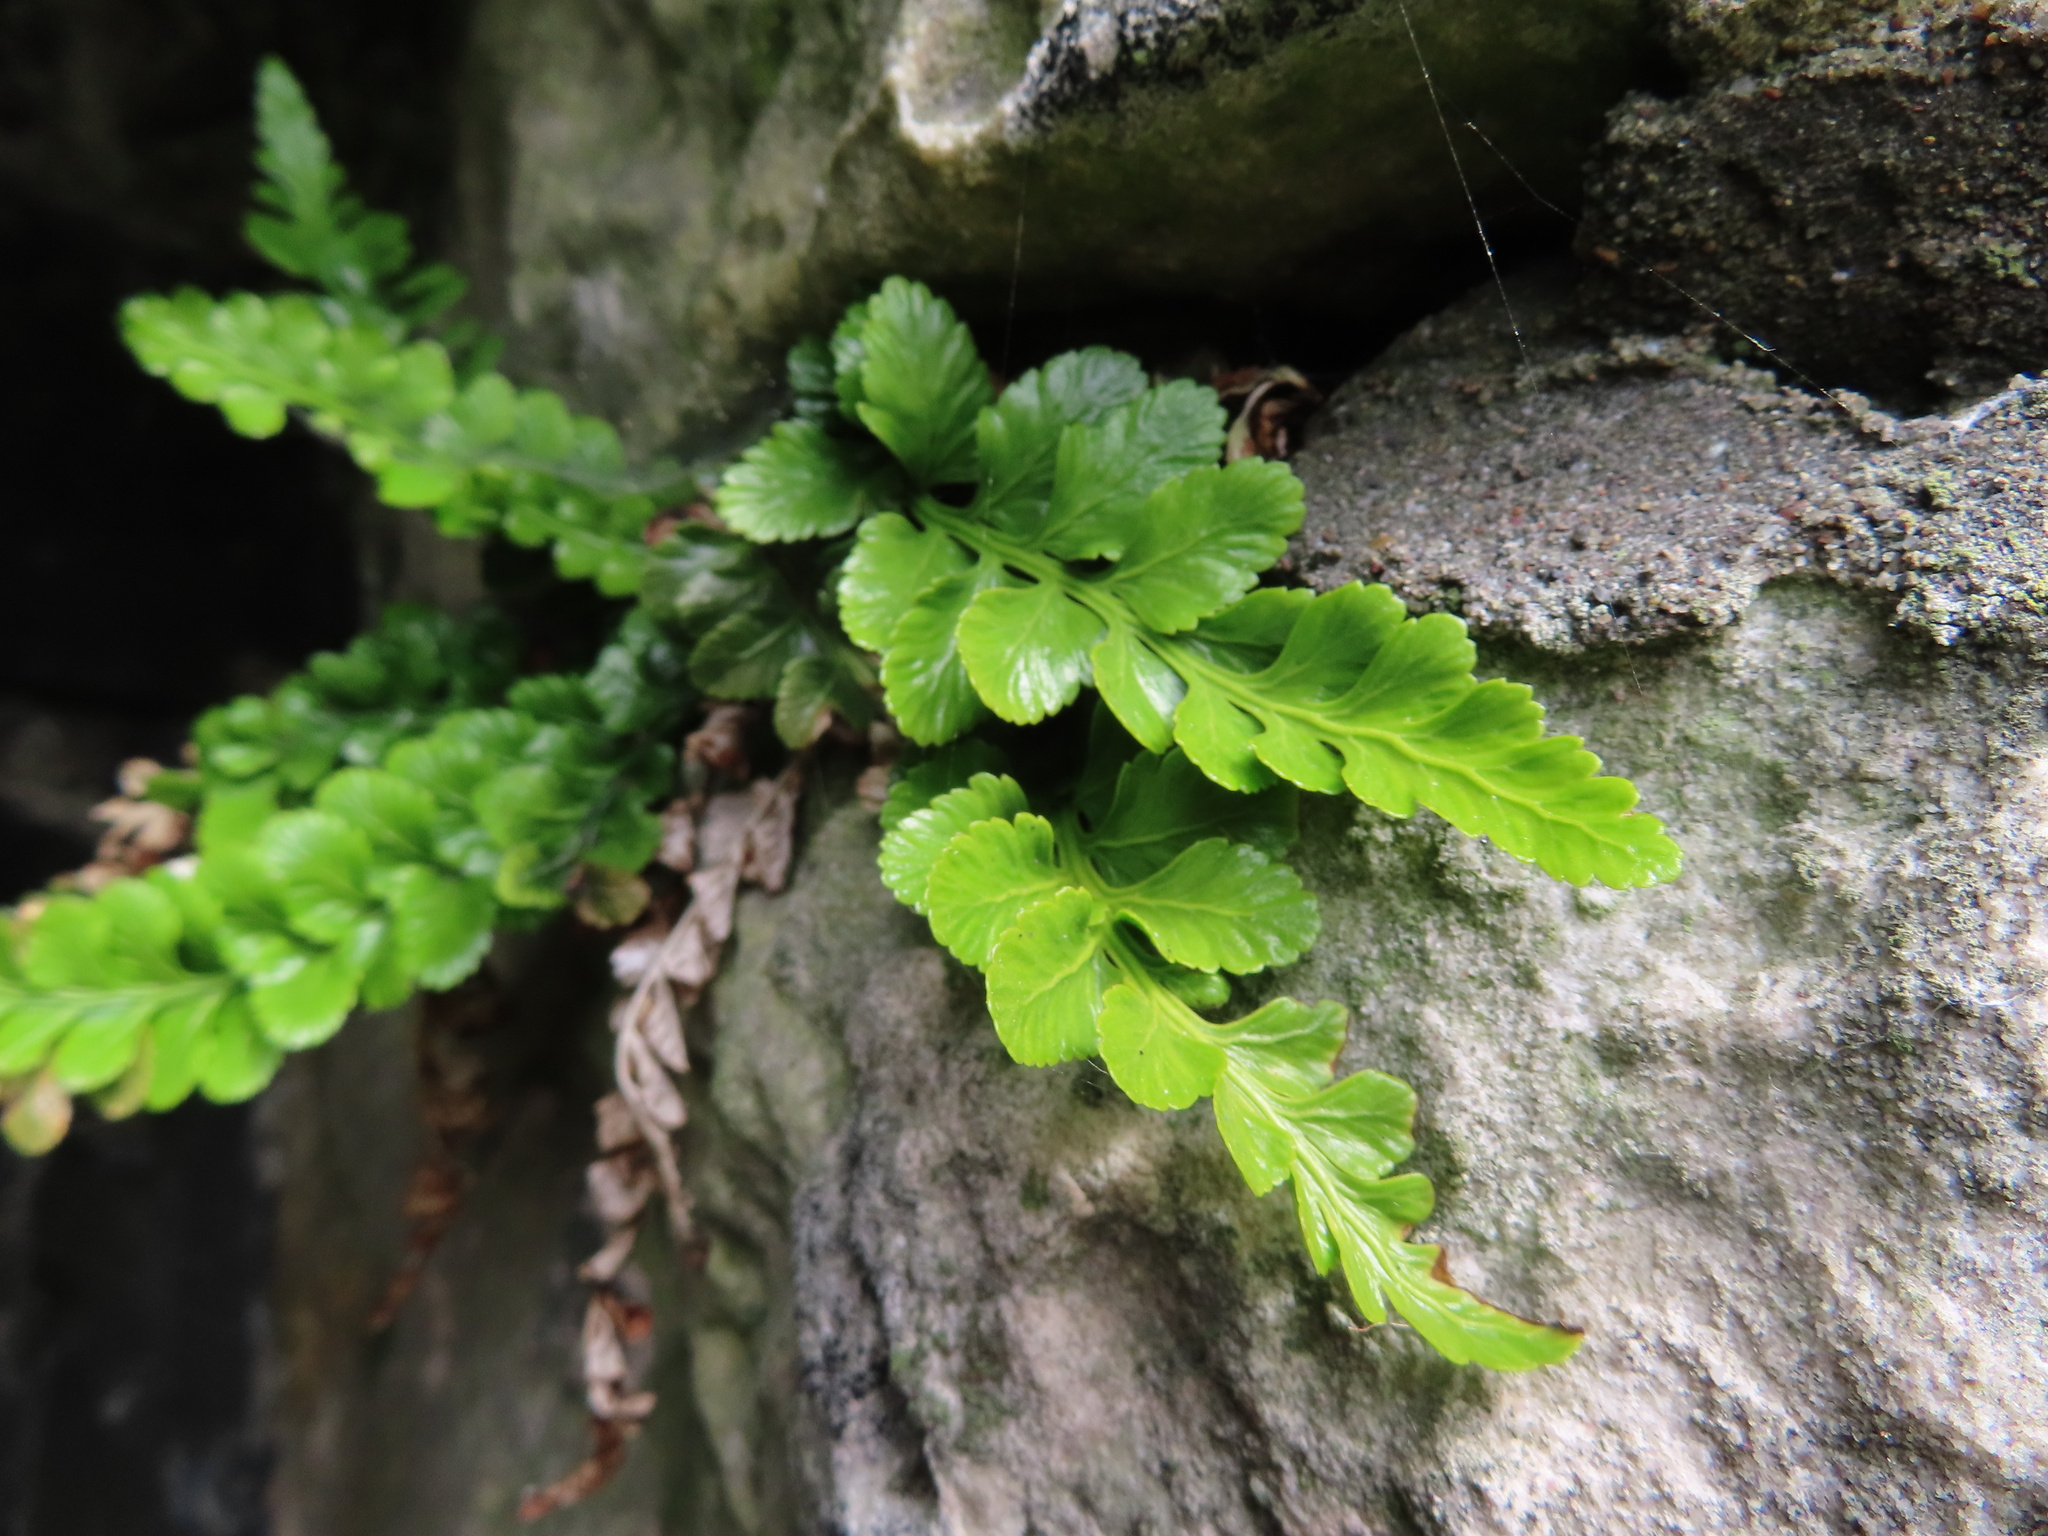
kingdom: Plantae
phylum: Tracheophyta
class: Polypodiopsida
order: Polypodiales
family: Aspleniaceae
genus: Asplenium
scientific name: Asplenium marinum
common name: Sea spleenwort
